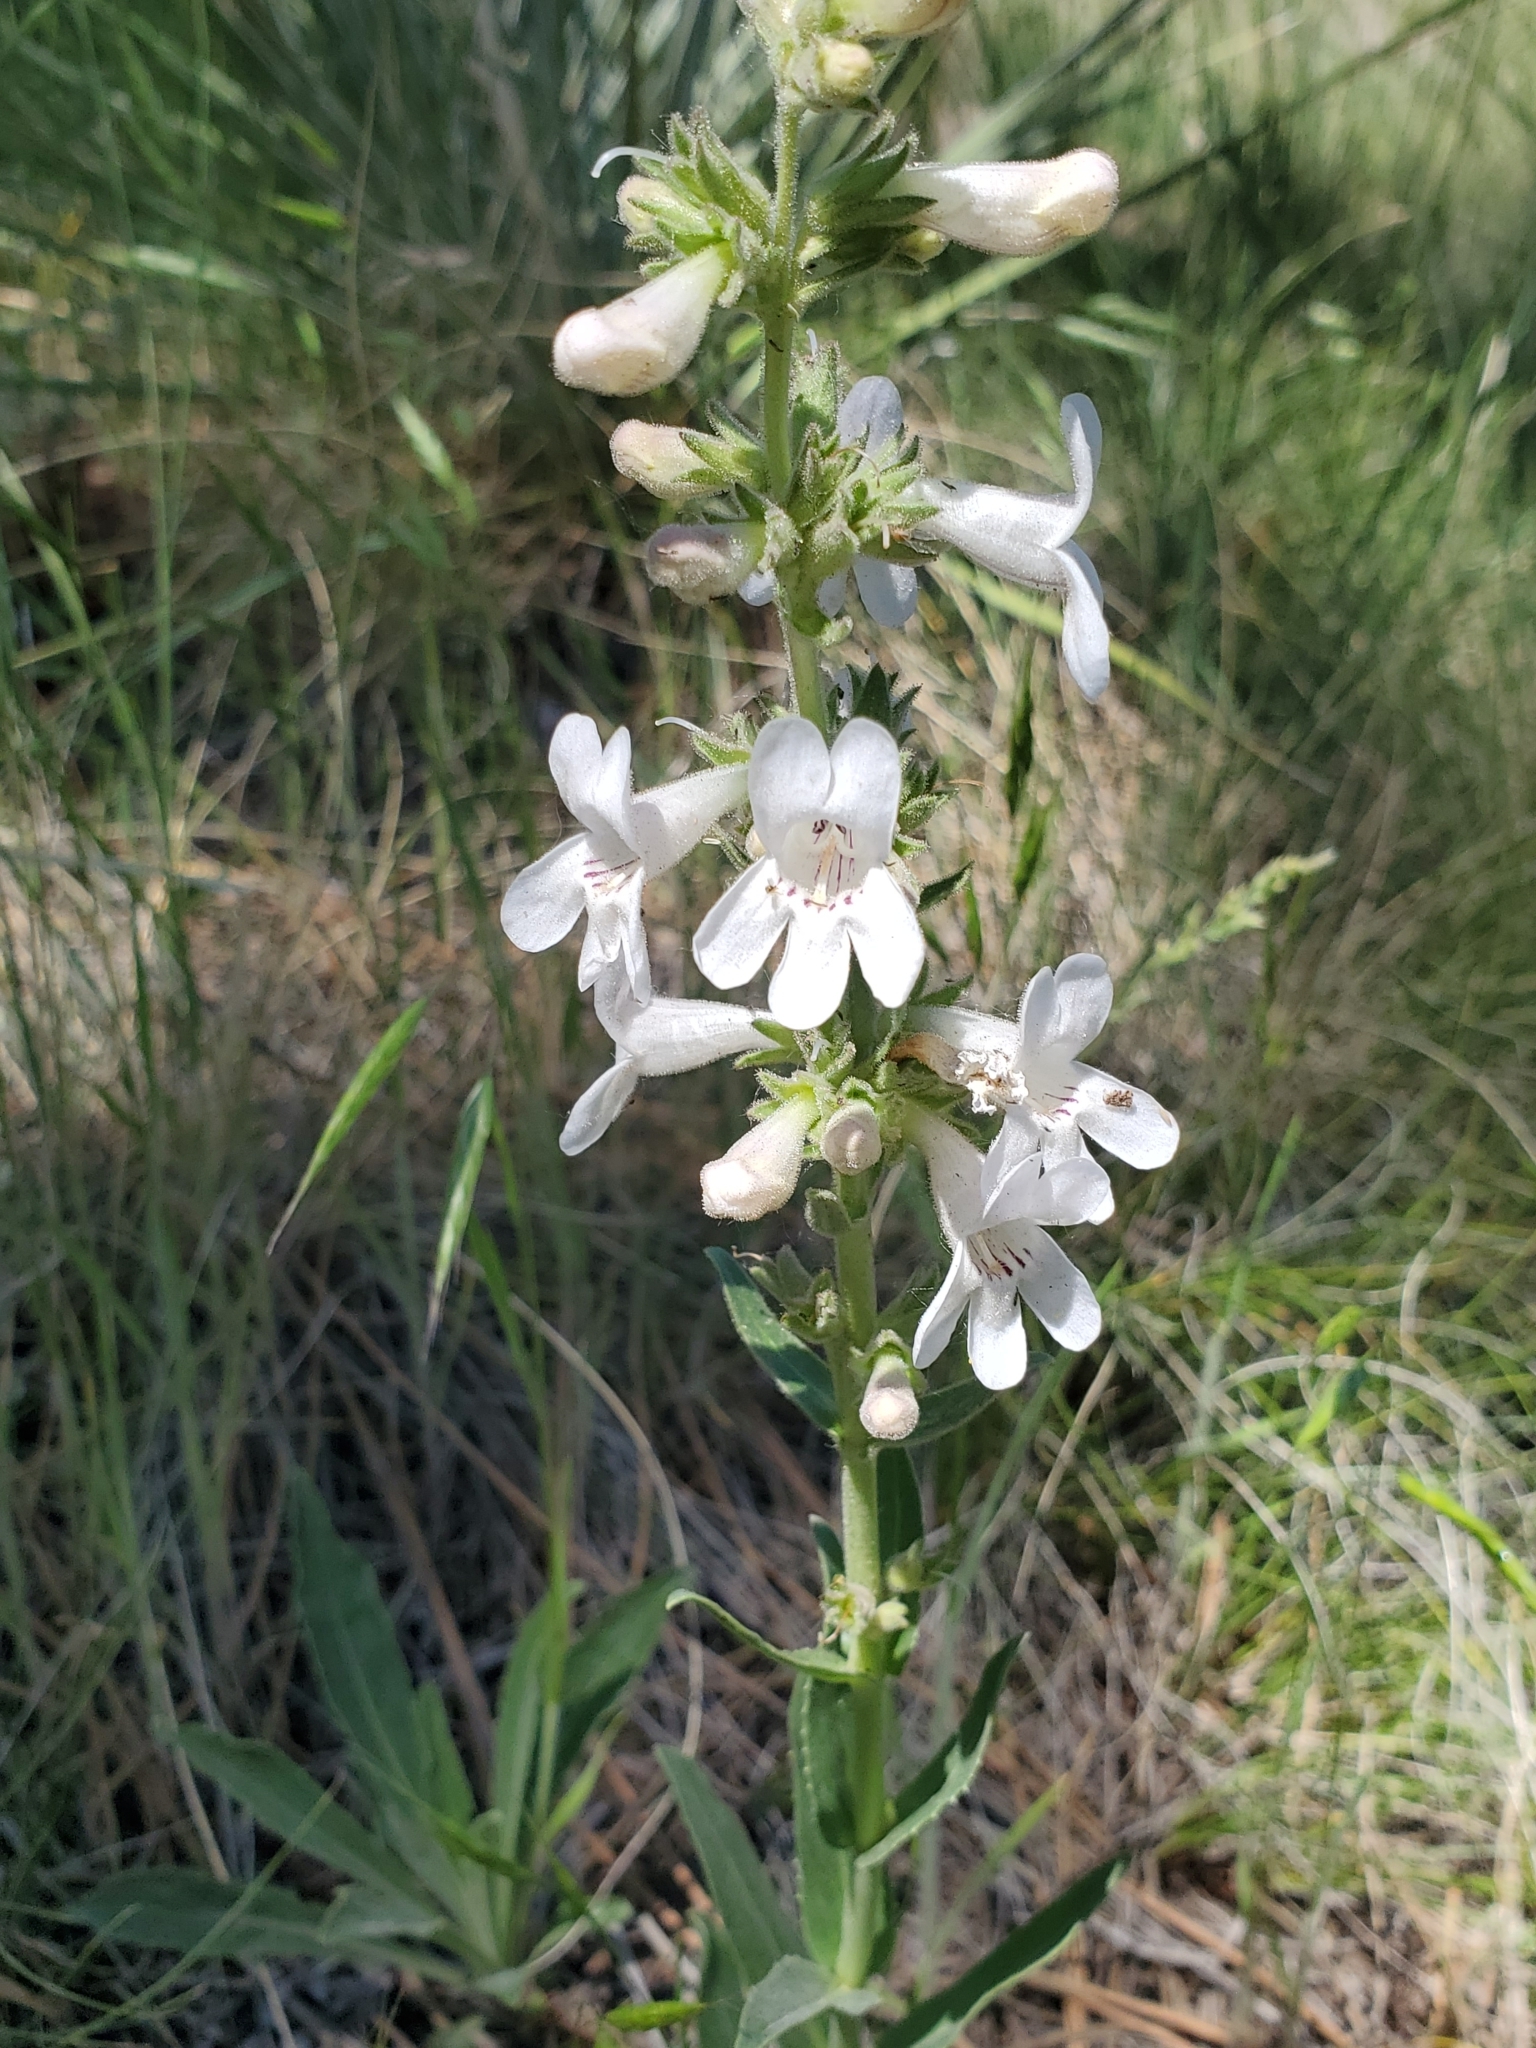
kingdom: Plantae
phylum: Tracheophyta
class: Magnoliopsida
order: Lamiales
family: Plantaginaceae
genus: Penstemon
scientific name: Penstemon albidus
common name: White beardtongue
